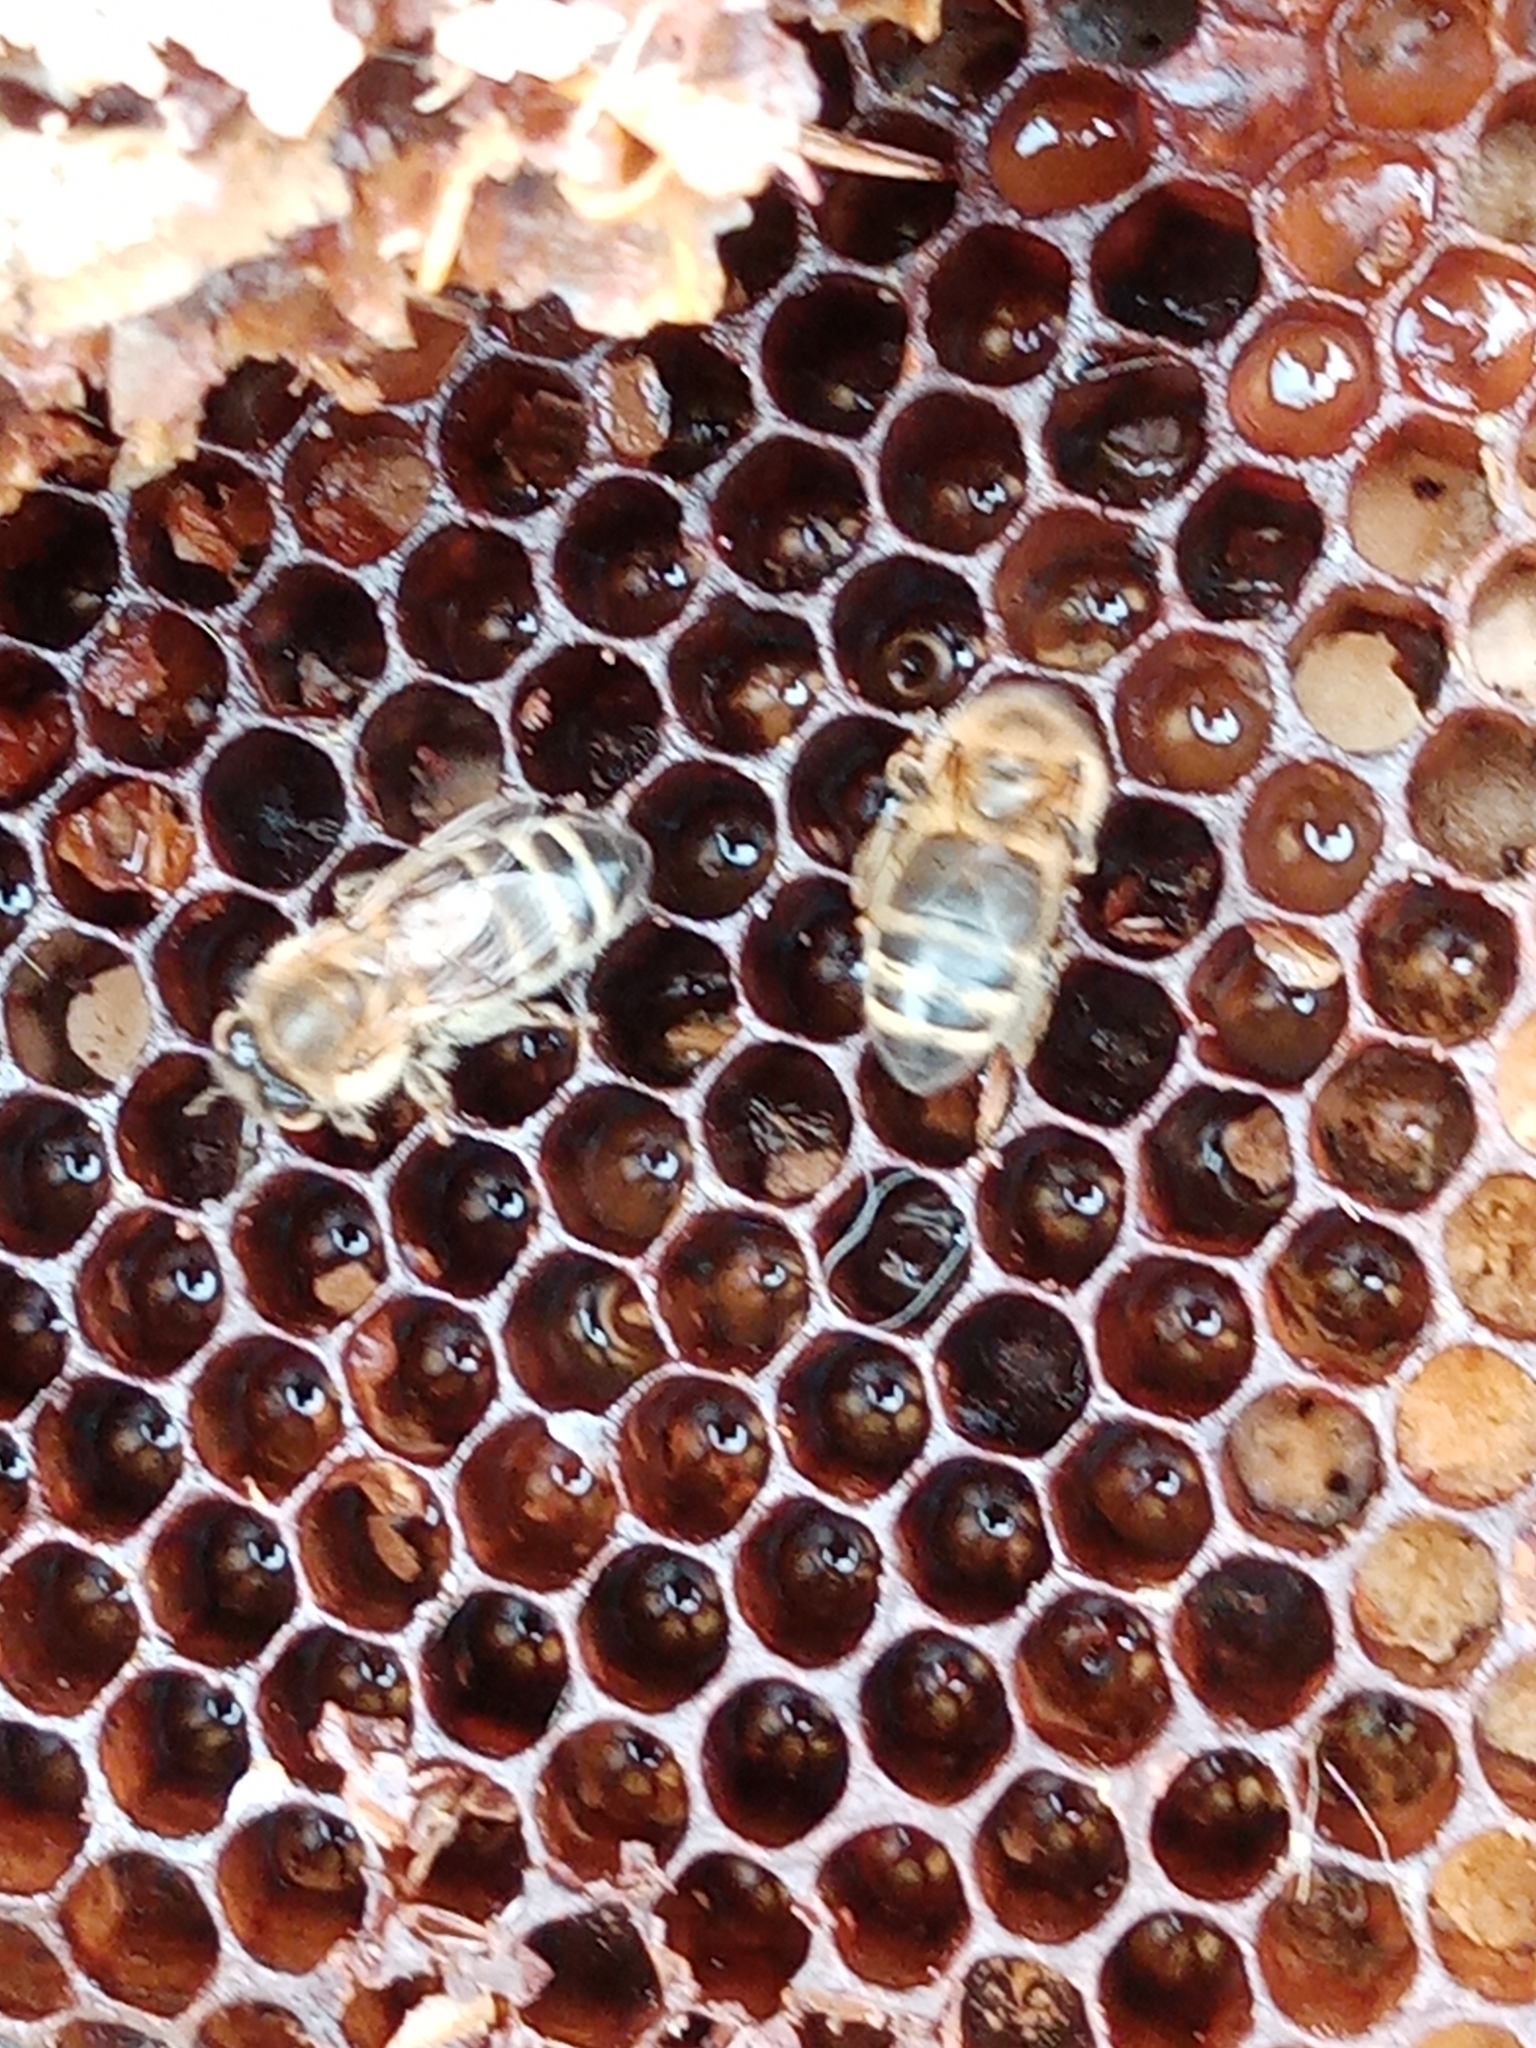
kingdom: Animalia
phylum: Arthropoda
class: Insecta
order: Hymenoptera
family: Apidae
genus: Apis
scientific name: Apis mellifera
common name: Honey bee
